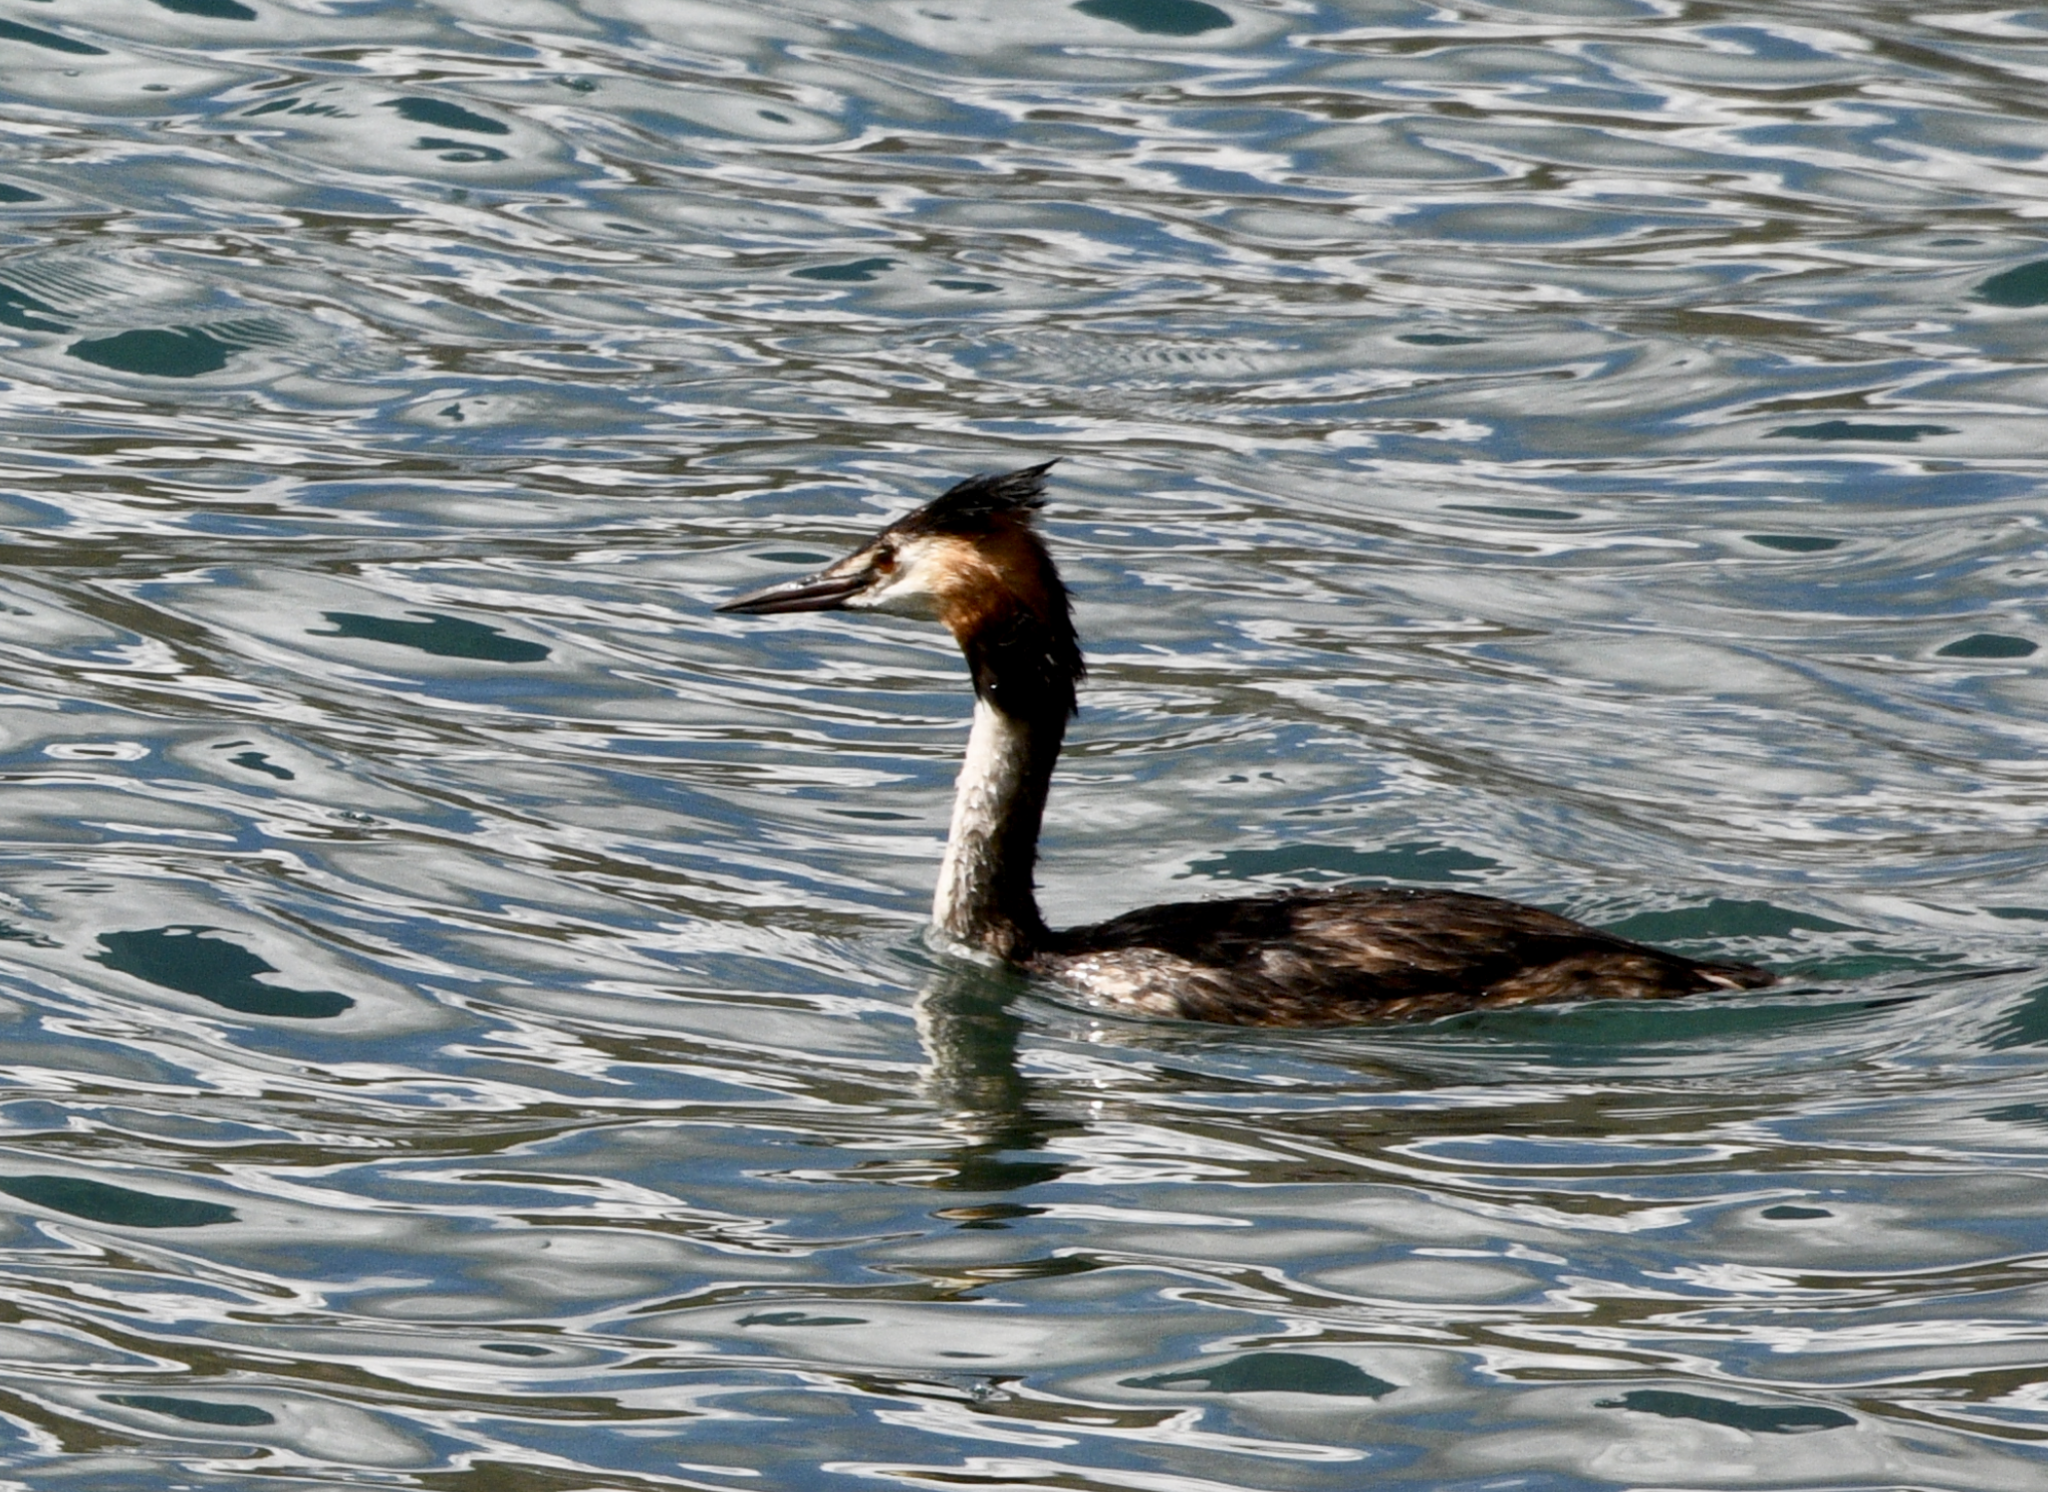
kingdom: Animalia
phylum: Chordata
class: Aves
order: Podicipediformes
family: Podicipedidae
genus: Podiceps
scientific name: Podiceps cristatus
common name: Great crested grebe
